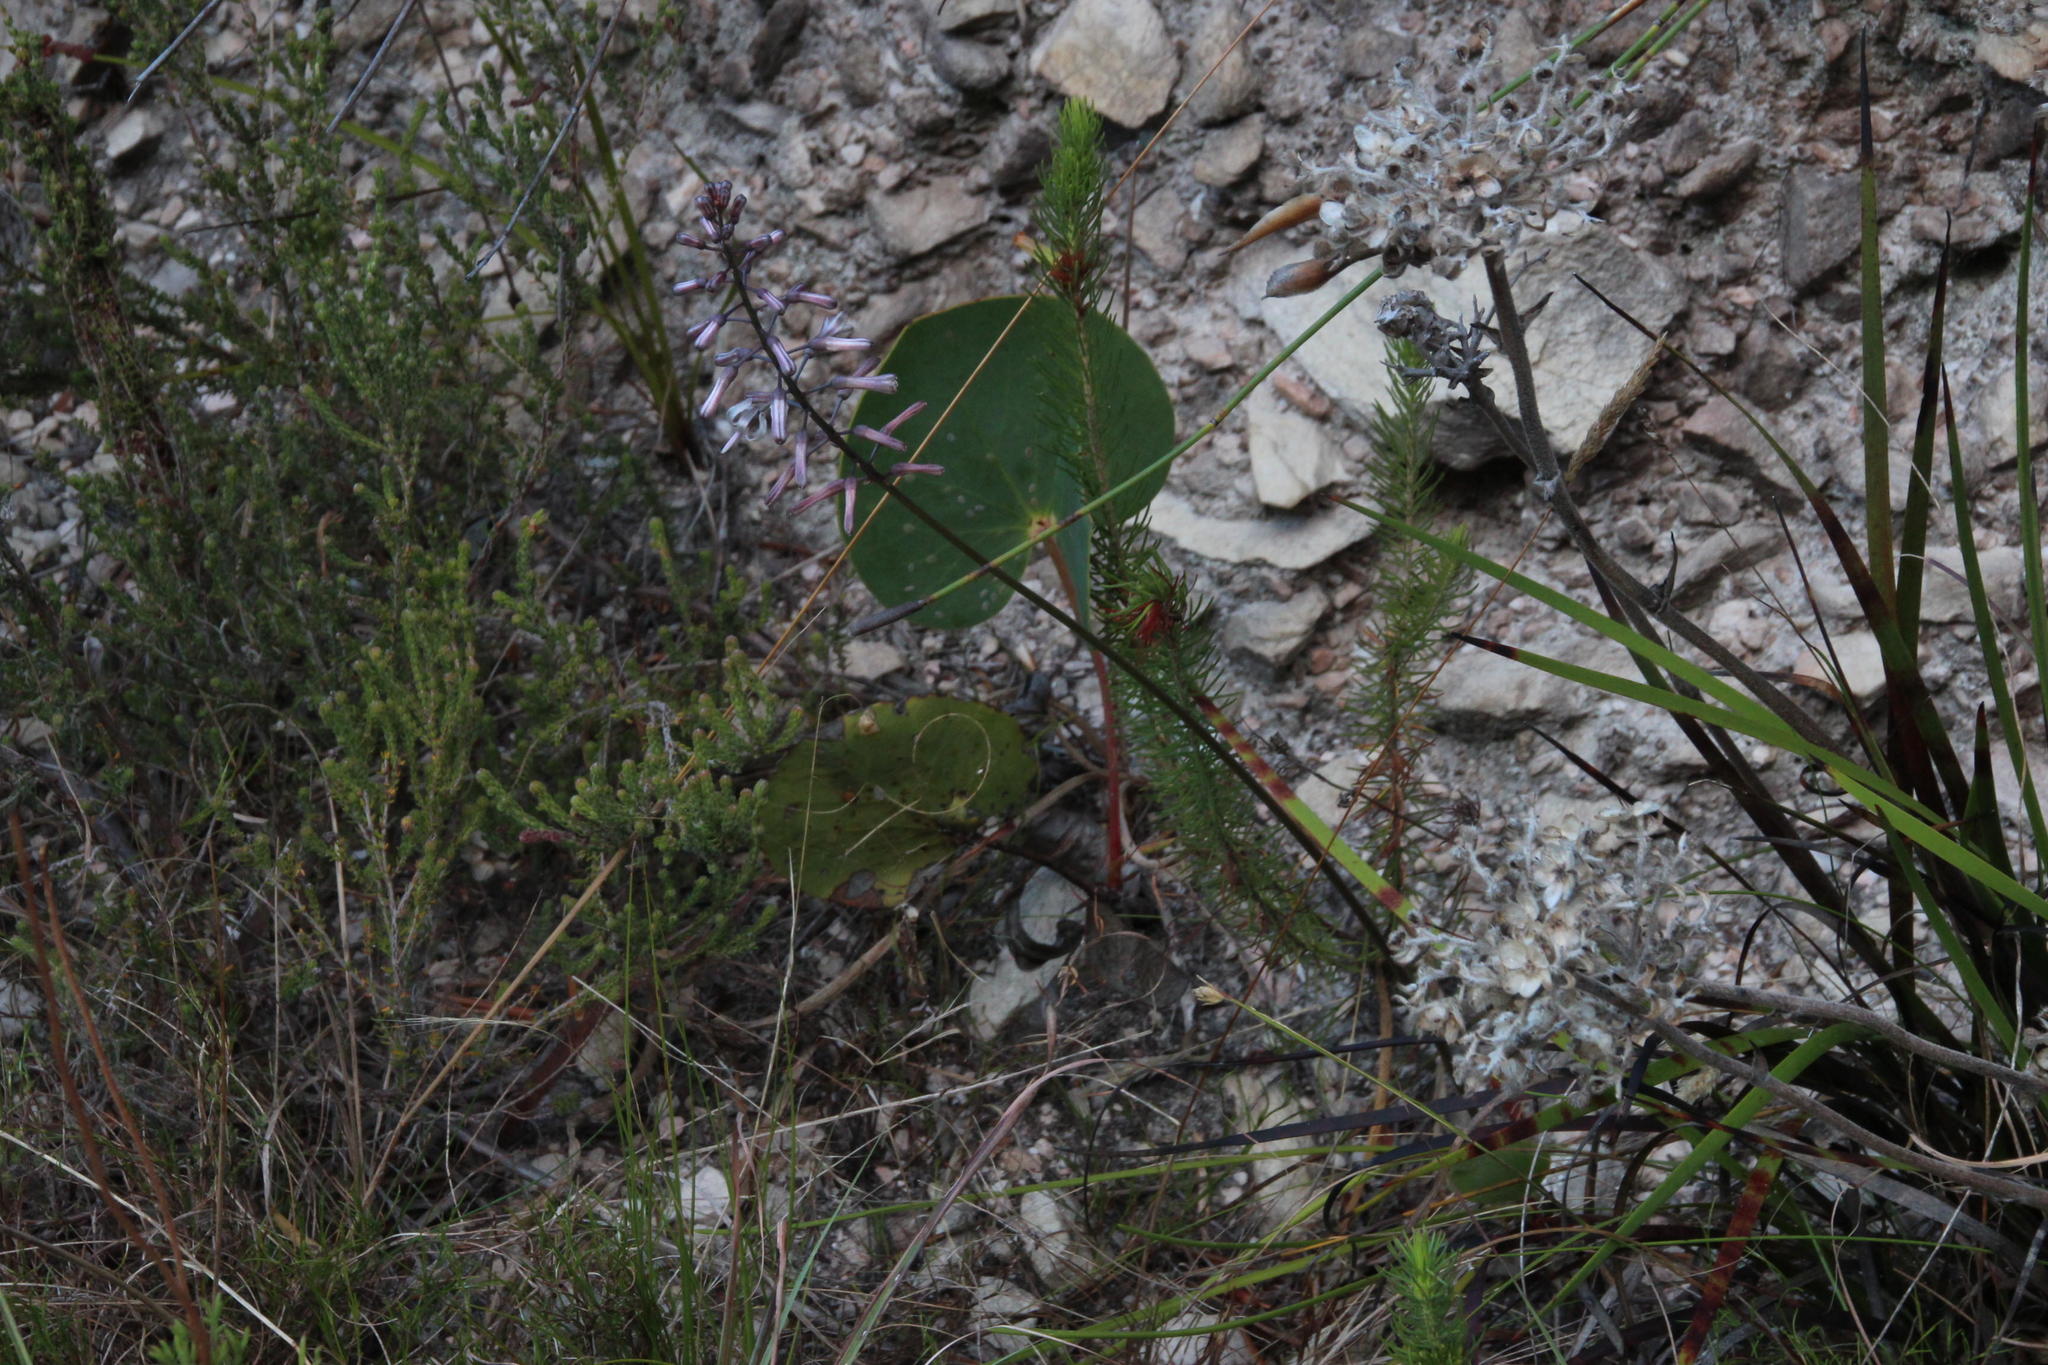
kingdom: Plantae
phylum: Tracheophyta
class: Liliopsida
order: Asparagales
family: Asparagaceae
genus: Drimia
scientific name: Drimia media
